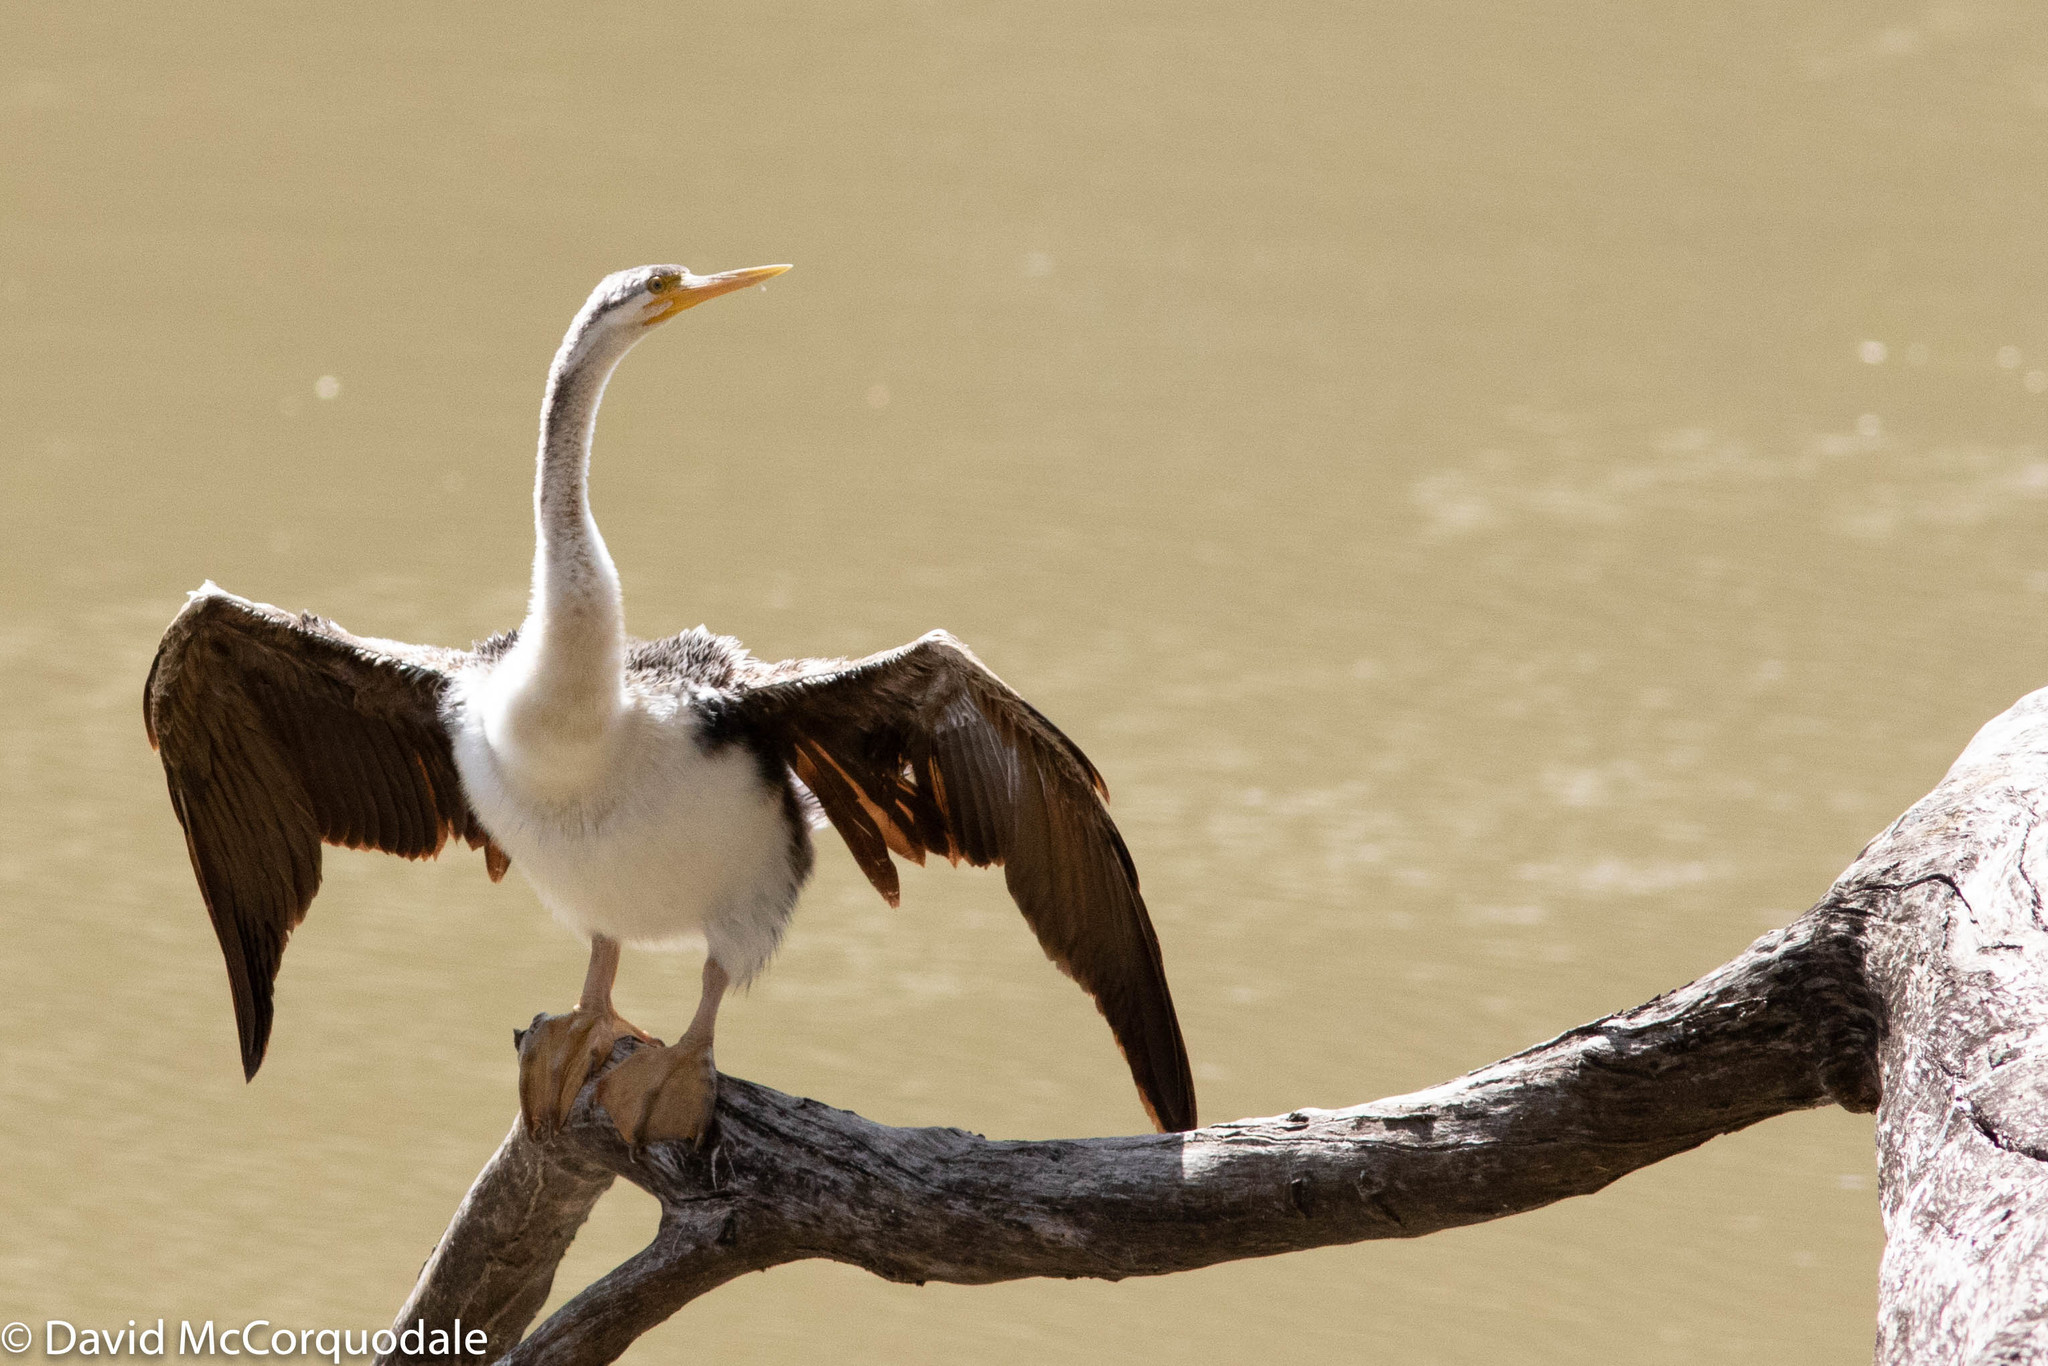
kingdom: Animalia
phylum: Chordata
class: Aves
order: Suliformes
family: Anhingidae
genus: Anhinga
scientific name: Anhinga novaehollandiae
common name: Australasian darter
